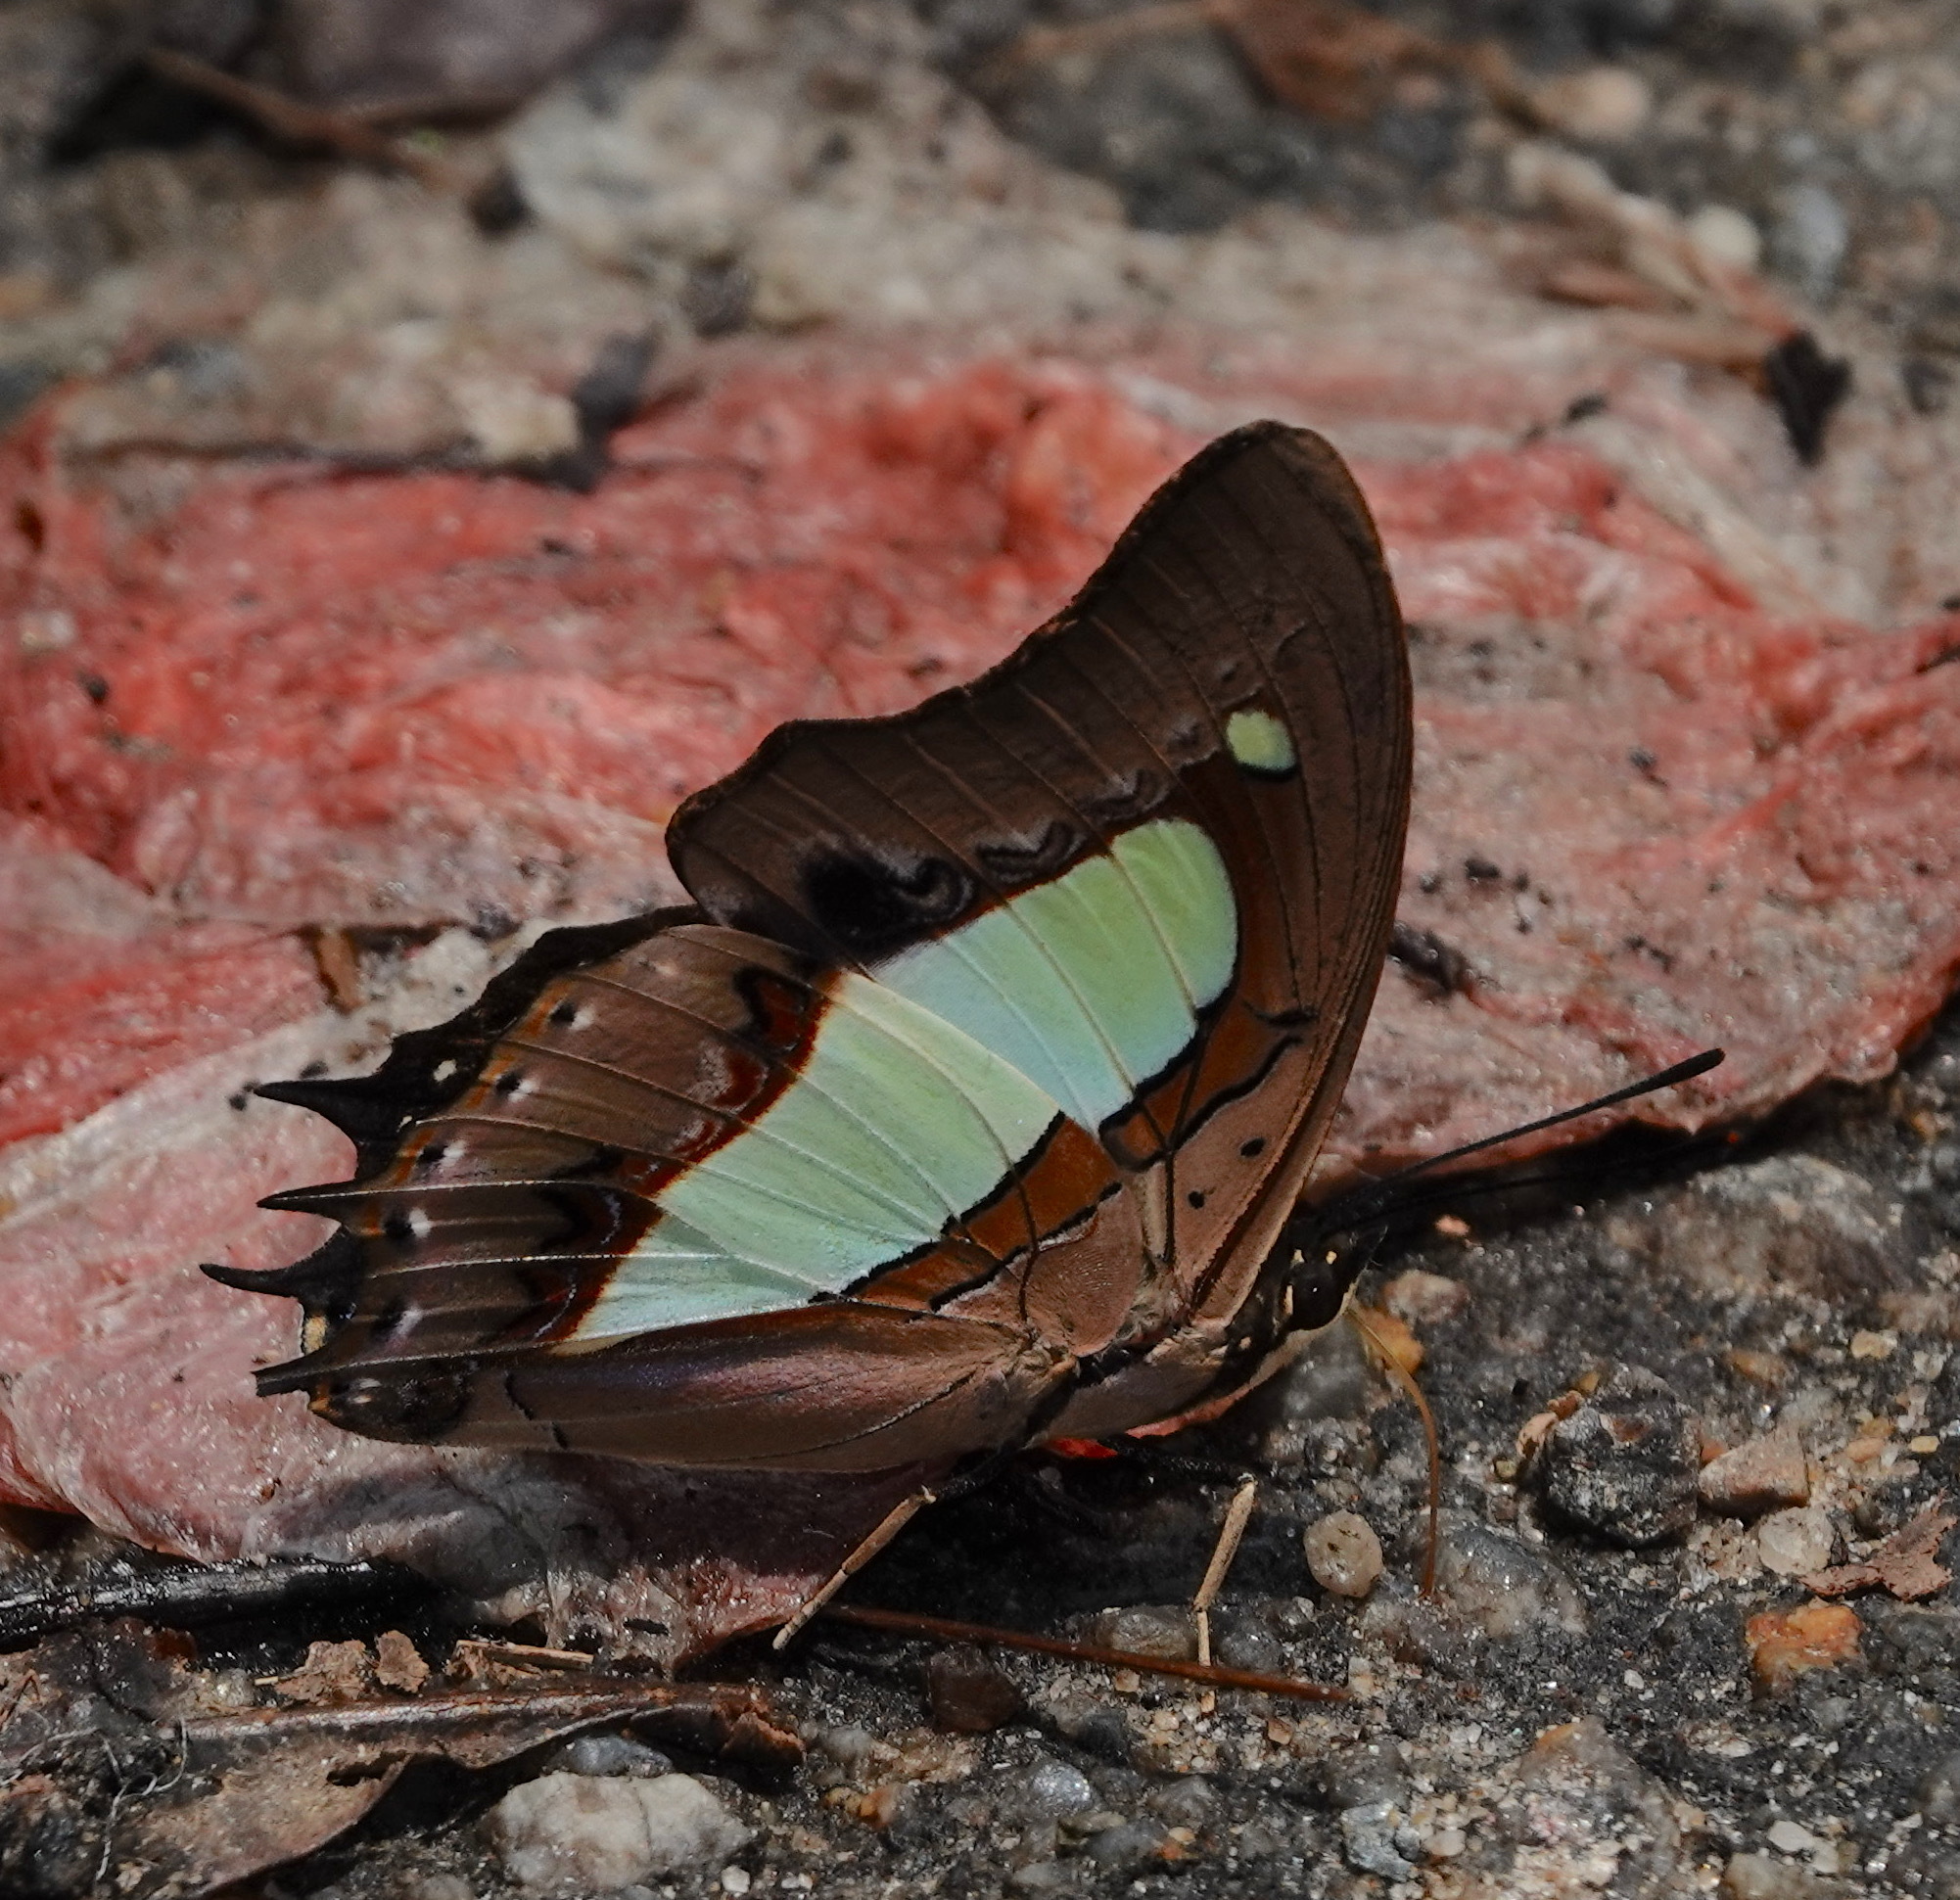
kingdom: Animalia
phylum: Arthropoda
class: Insecta
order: Lepidoptera
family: Nymphalidae
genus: Polyura
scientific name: Polyura athamas
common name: Common nawab
